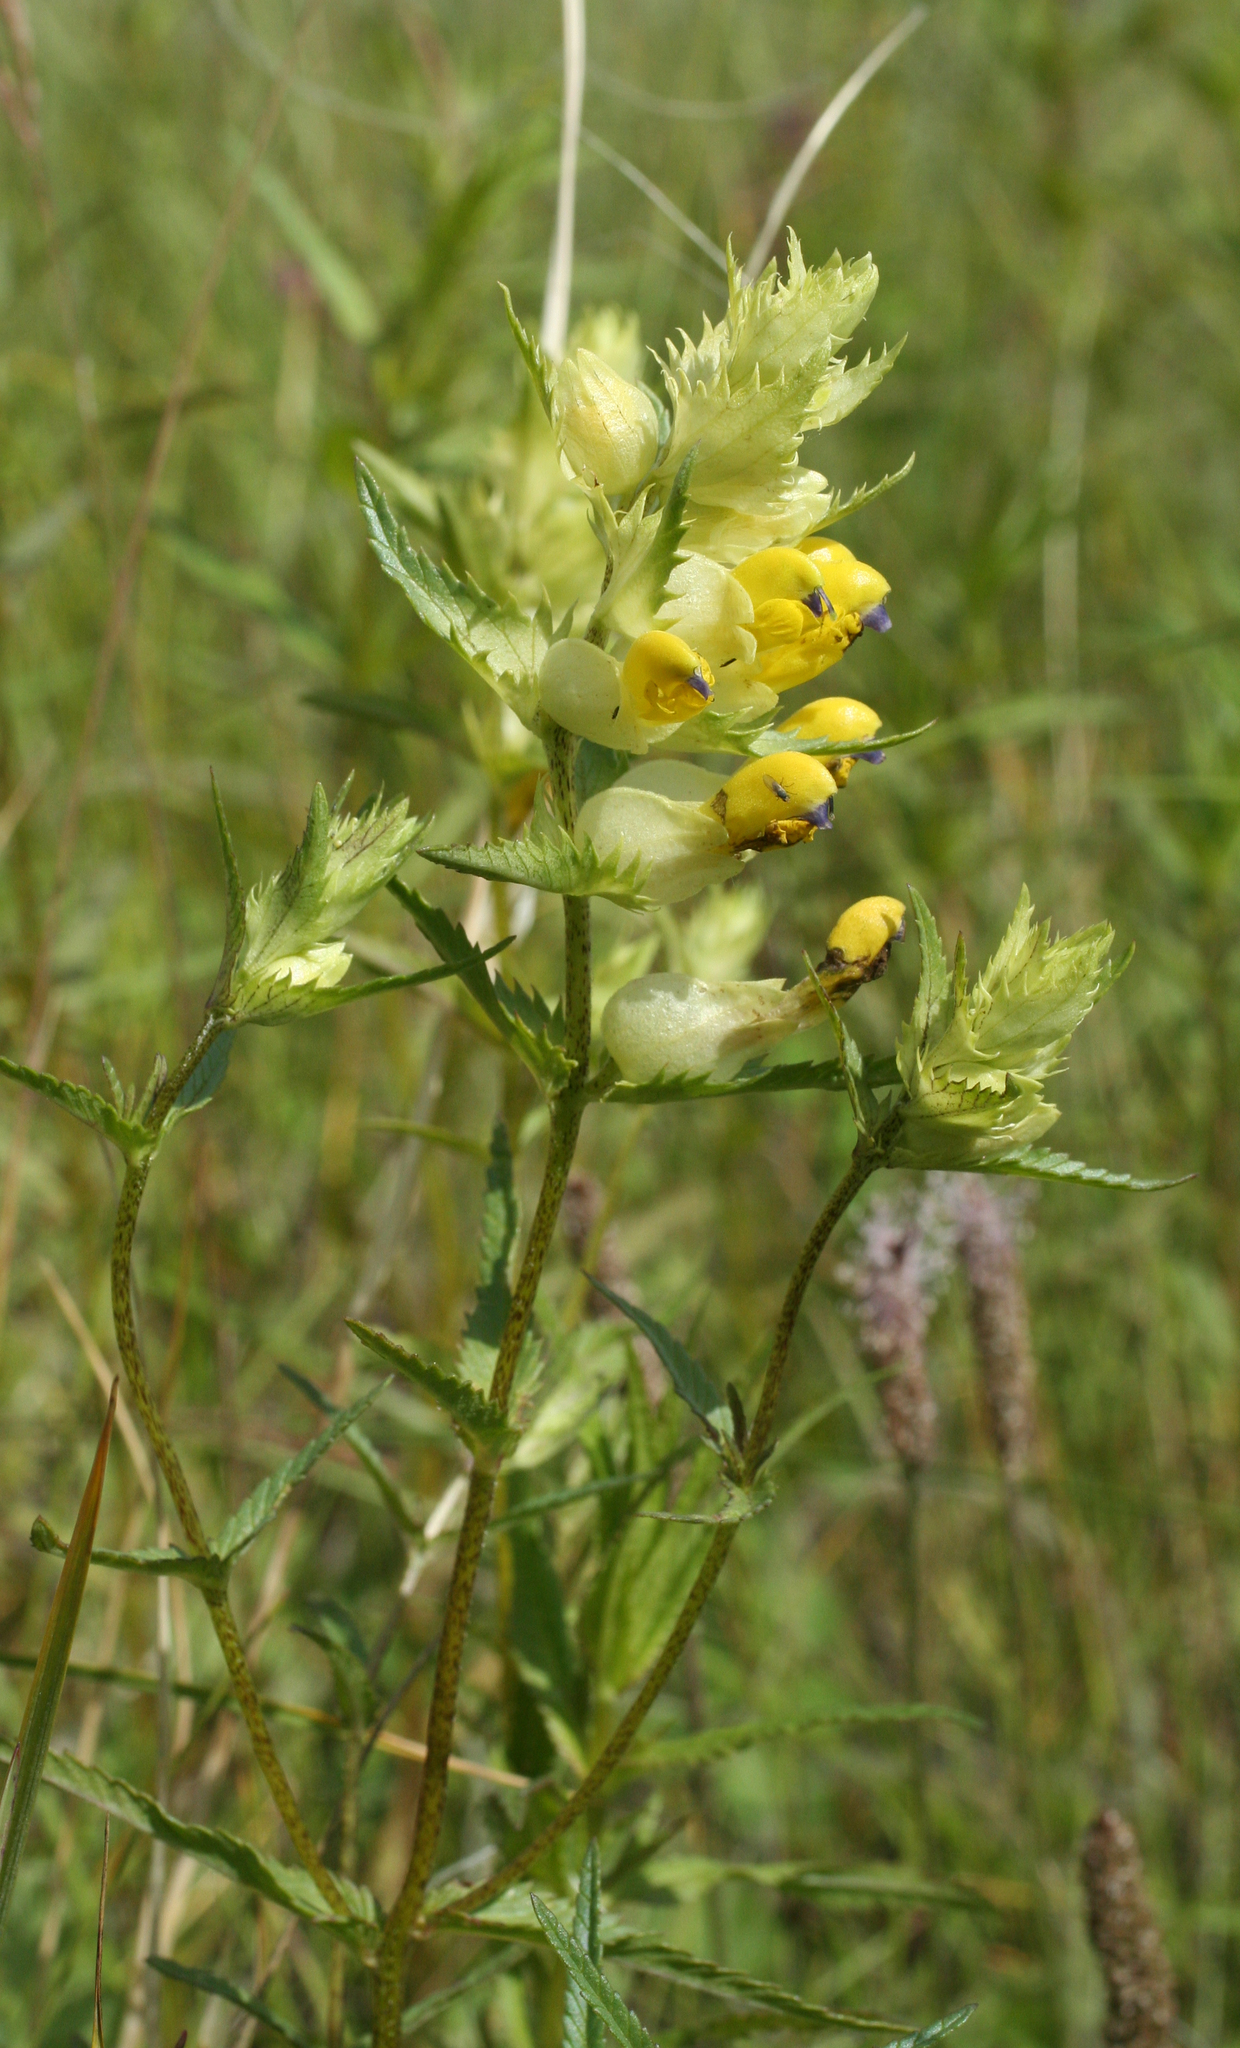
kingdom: Plantae
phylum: Tracheophyta
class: Magnoliopsida
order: Lamiales
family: Orobanchaceae
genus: Rhinanthus
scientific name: Rhinanthus serotinus
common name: Late-flowering yellow rattle
